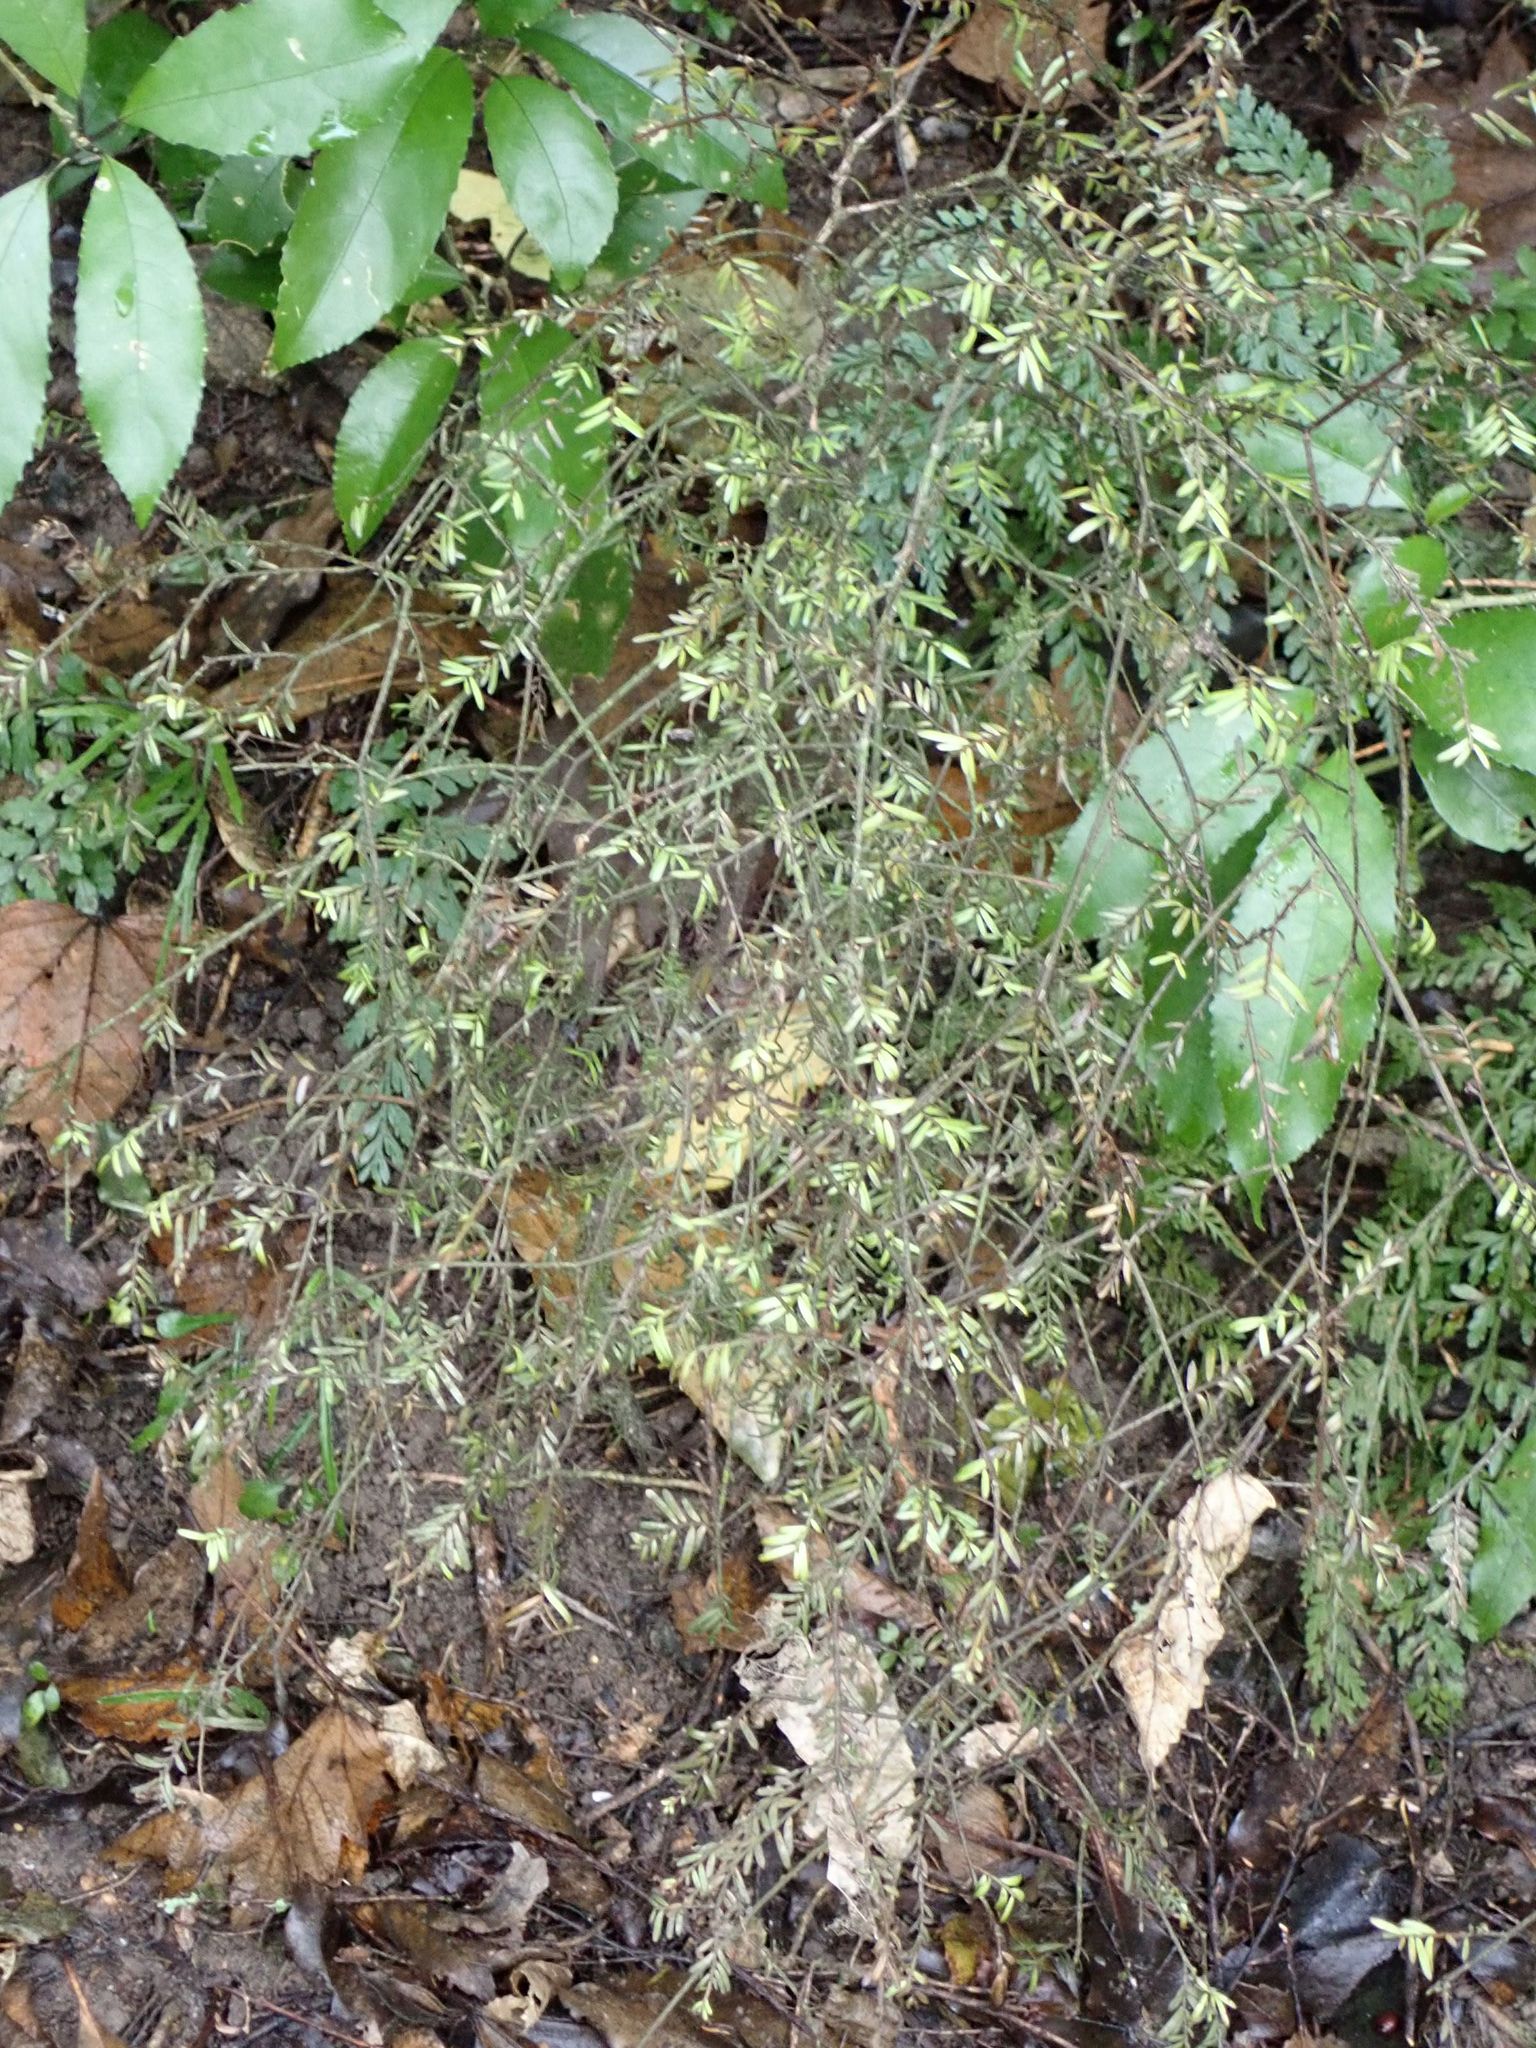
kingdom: Plantae
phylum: Tracheophyta
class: Pinopsida
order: Pinales
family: Podocarpaceae
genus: Prumnopitys
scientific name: Prumnopitys taxifolia
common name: Matai
